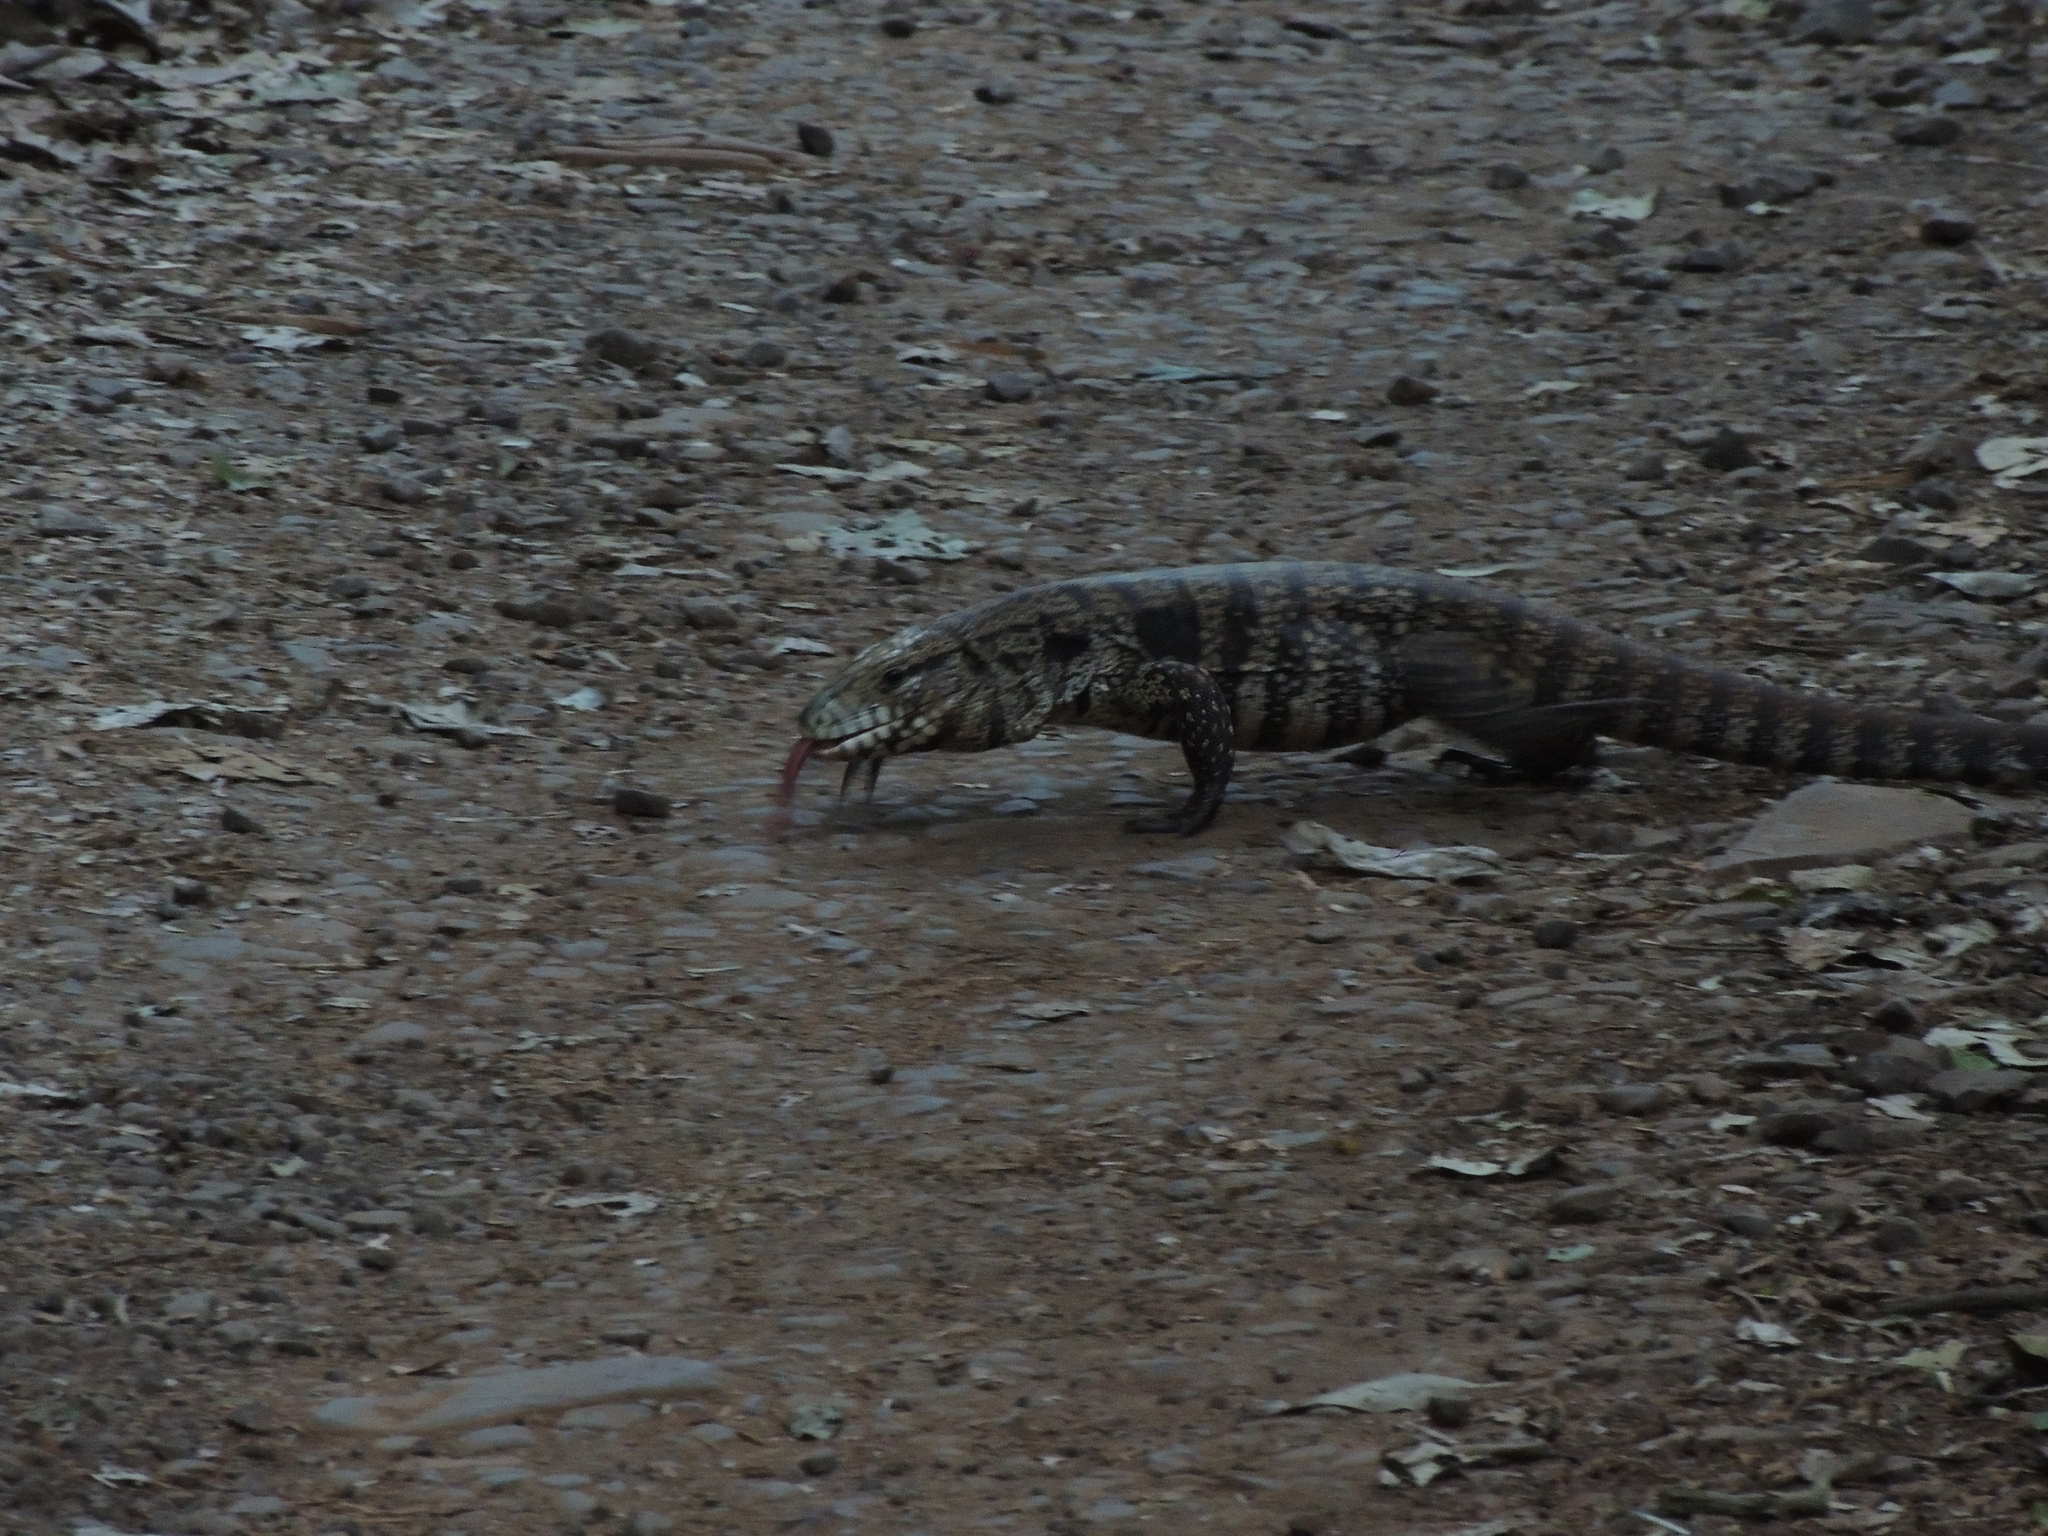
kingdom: Animalia
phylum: Chordata
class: Squamata
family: Teiidae
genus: Salvator
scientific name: Salvator merianae
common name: Argentine black and white tegu
